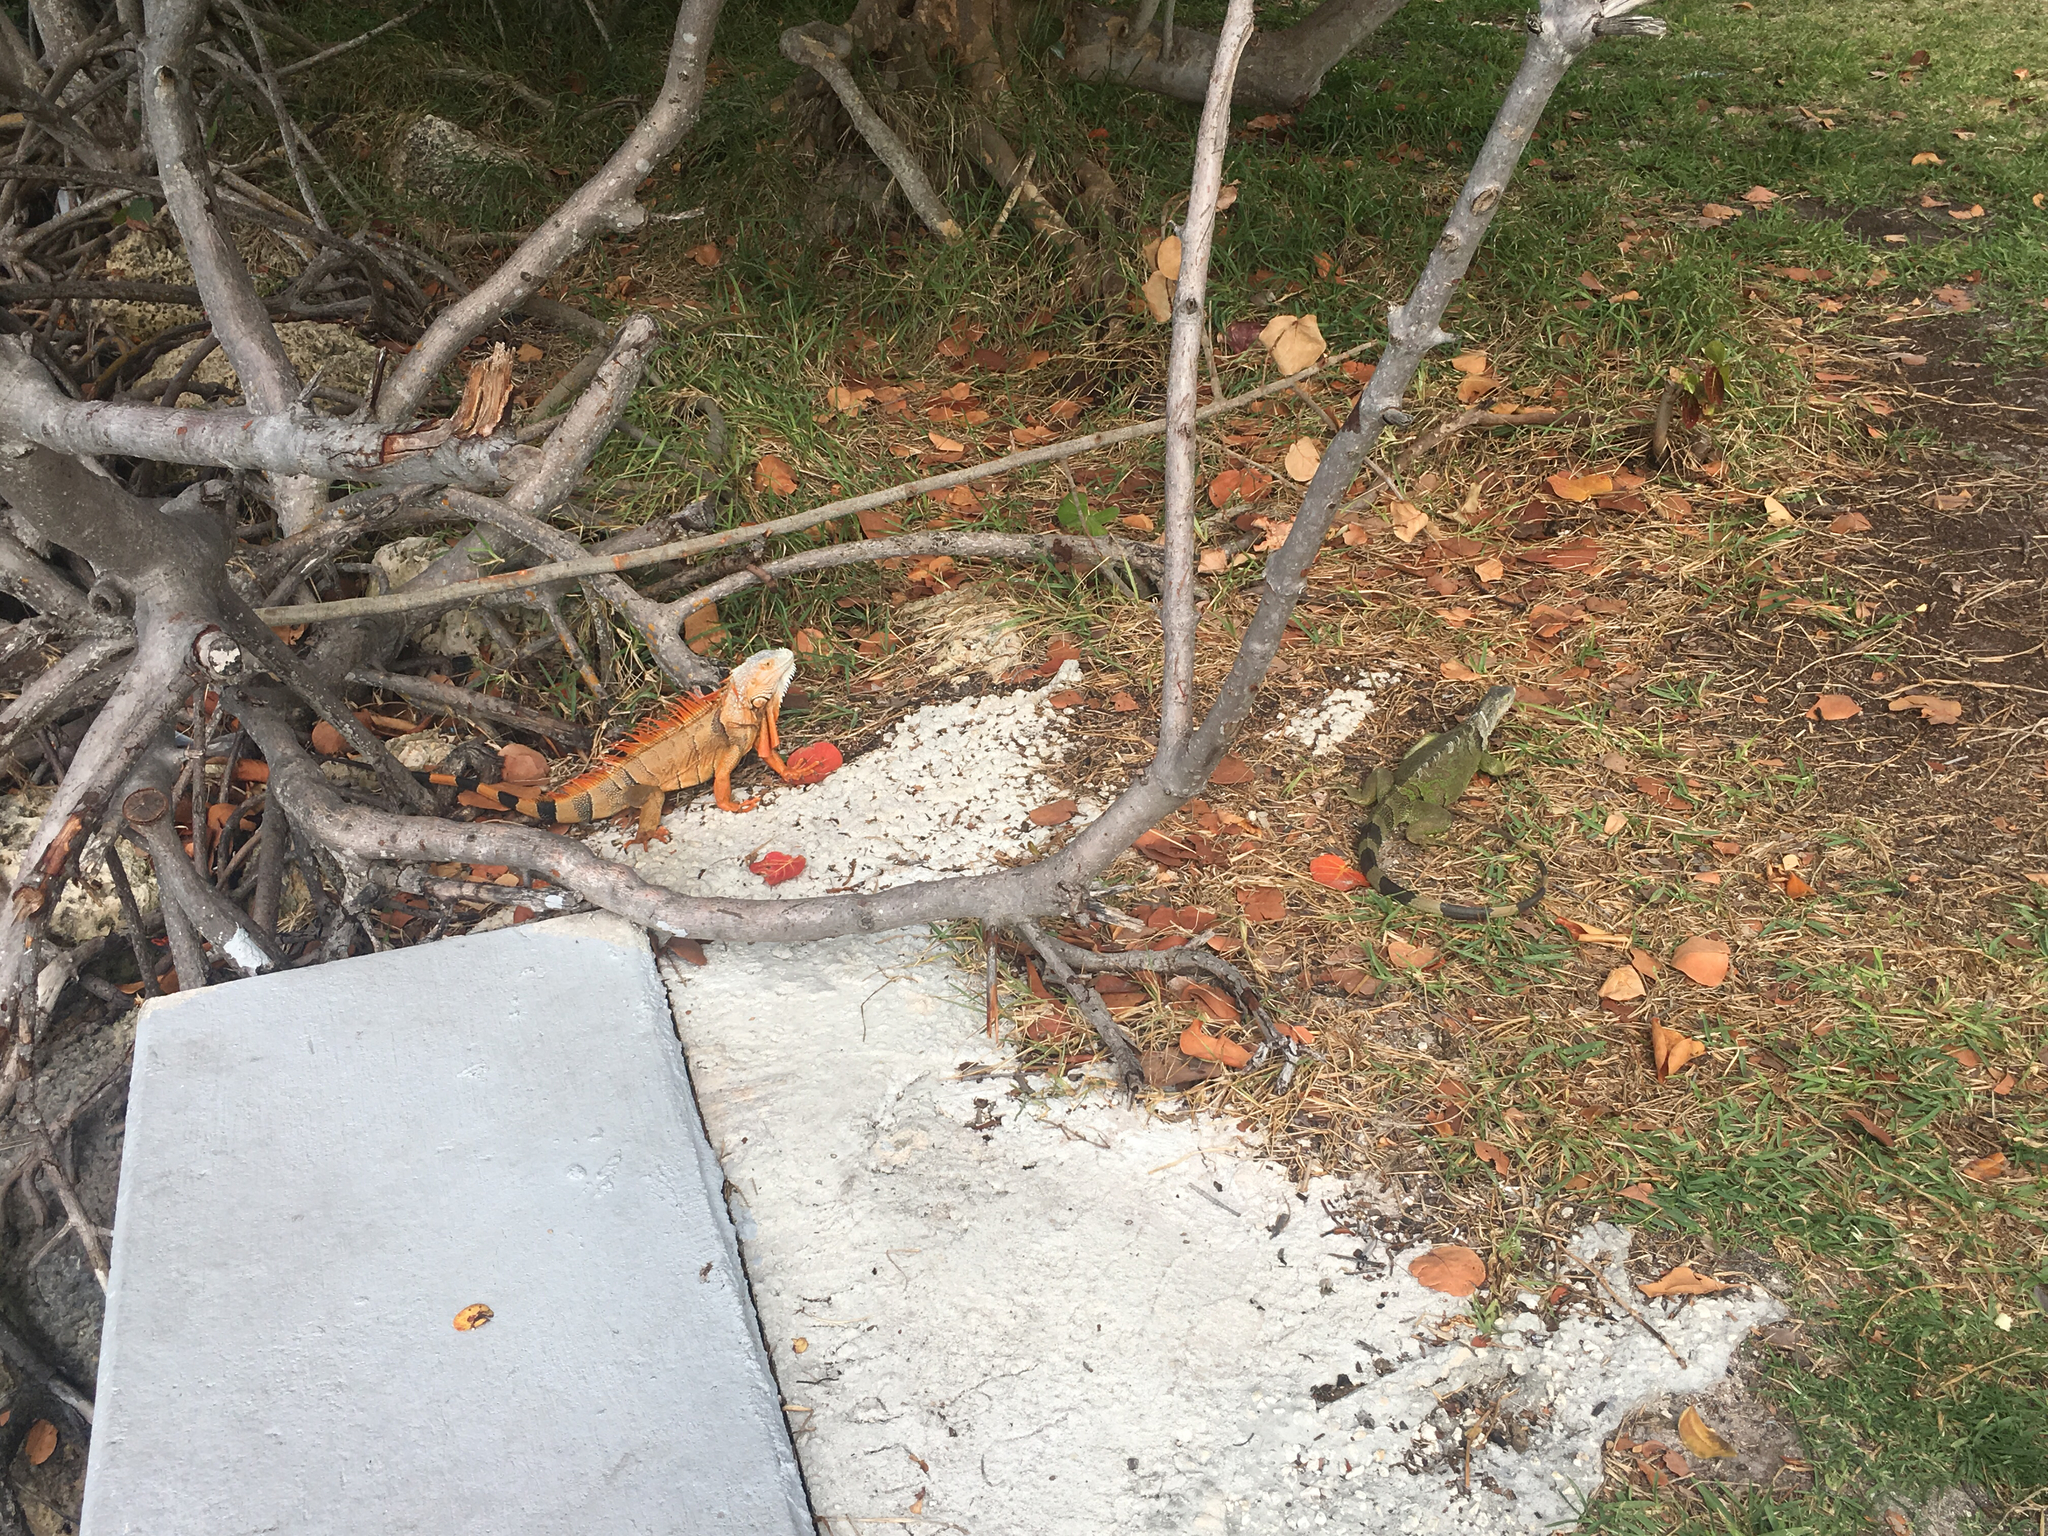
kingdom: Animalia
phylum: Chordata
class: Squamata
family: Iguanidae
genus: Iguana
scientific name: Iguana iguana
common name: Green iguana
